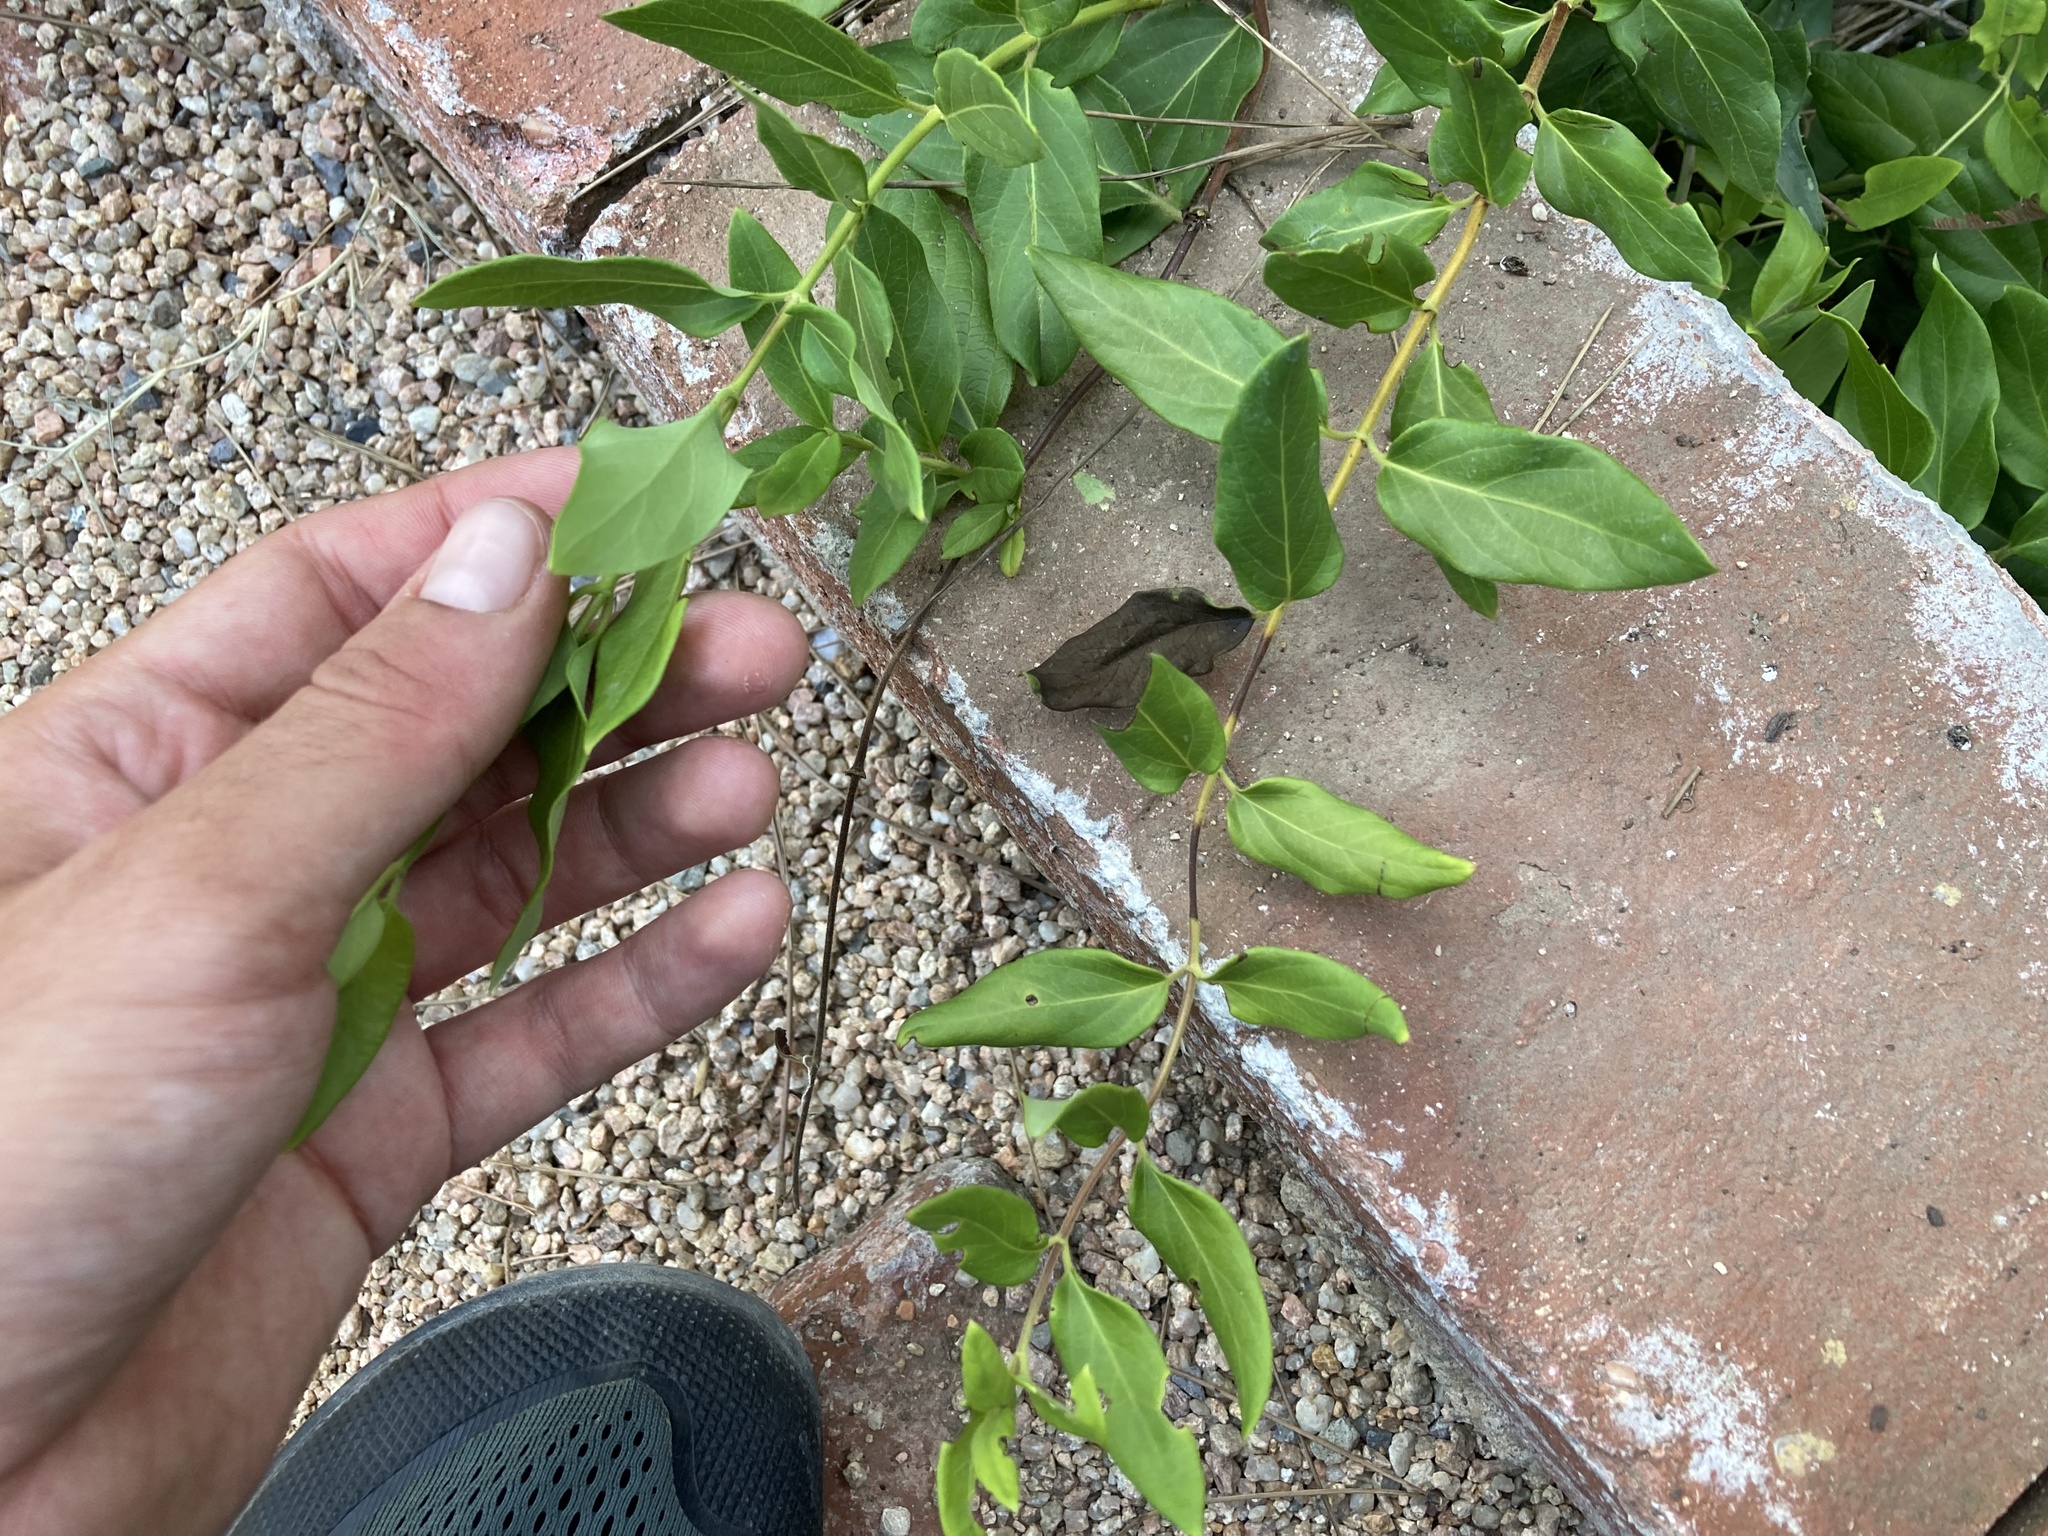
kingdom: Plantae
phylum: Tracheophyta
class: Magnoliopsida
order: Dipsacales
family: Caprifoliaceae
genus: Lonicera
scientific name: Lonicera japonica
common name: Japanese honeysuckle
